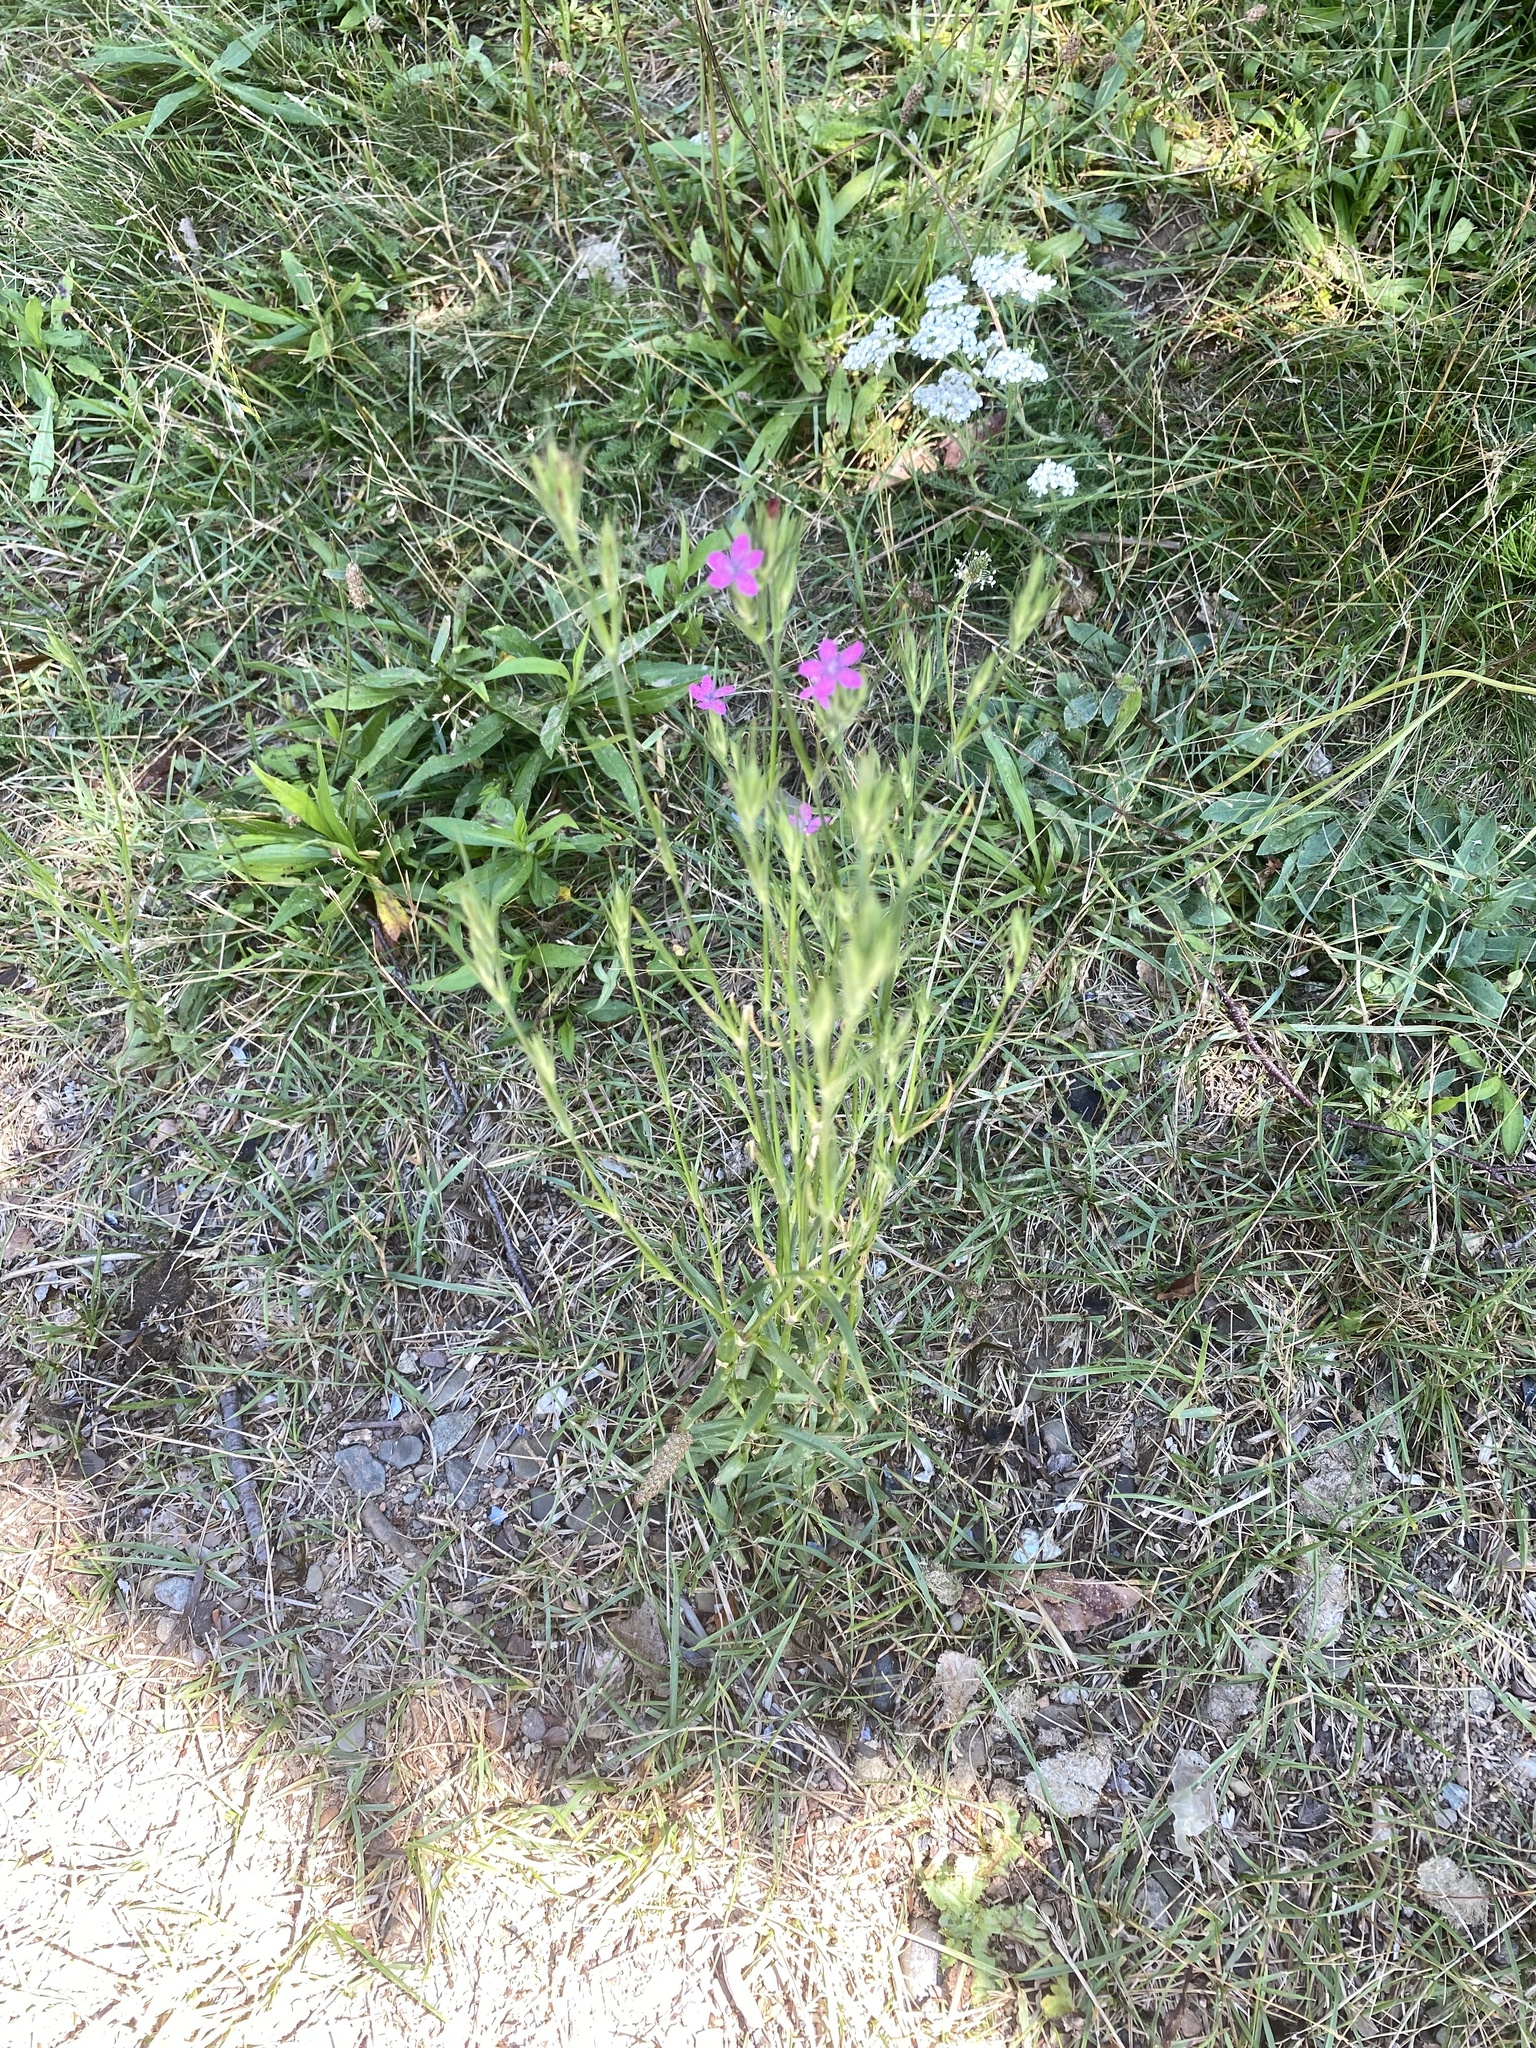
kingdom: Plantae
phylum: Tracheophyta
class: Magnoliopsida
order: Caryophyllales
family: Caryophyllaceae
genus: Dianthus
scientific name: Dianthus armeria
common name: Deptford pink
